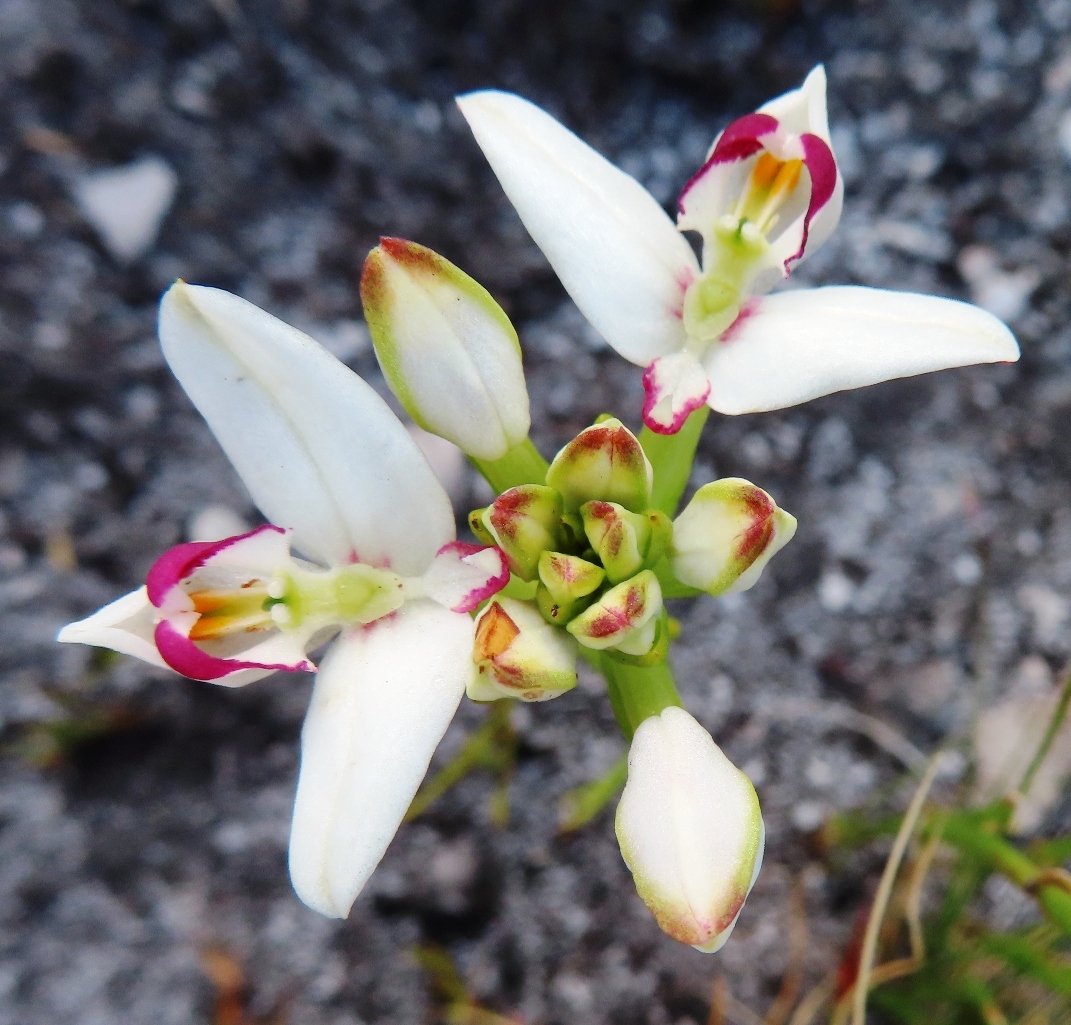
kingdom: Plantae
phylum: Tracheophyta
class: Liliopsida
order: Asparagales
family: Orchidaceae
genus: Disa
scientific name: Disa bivalvata
